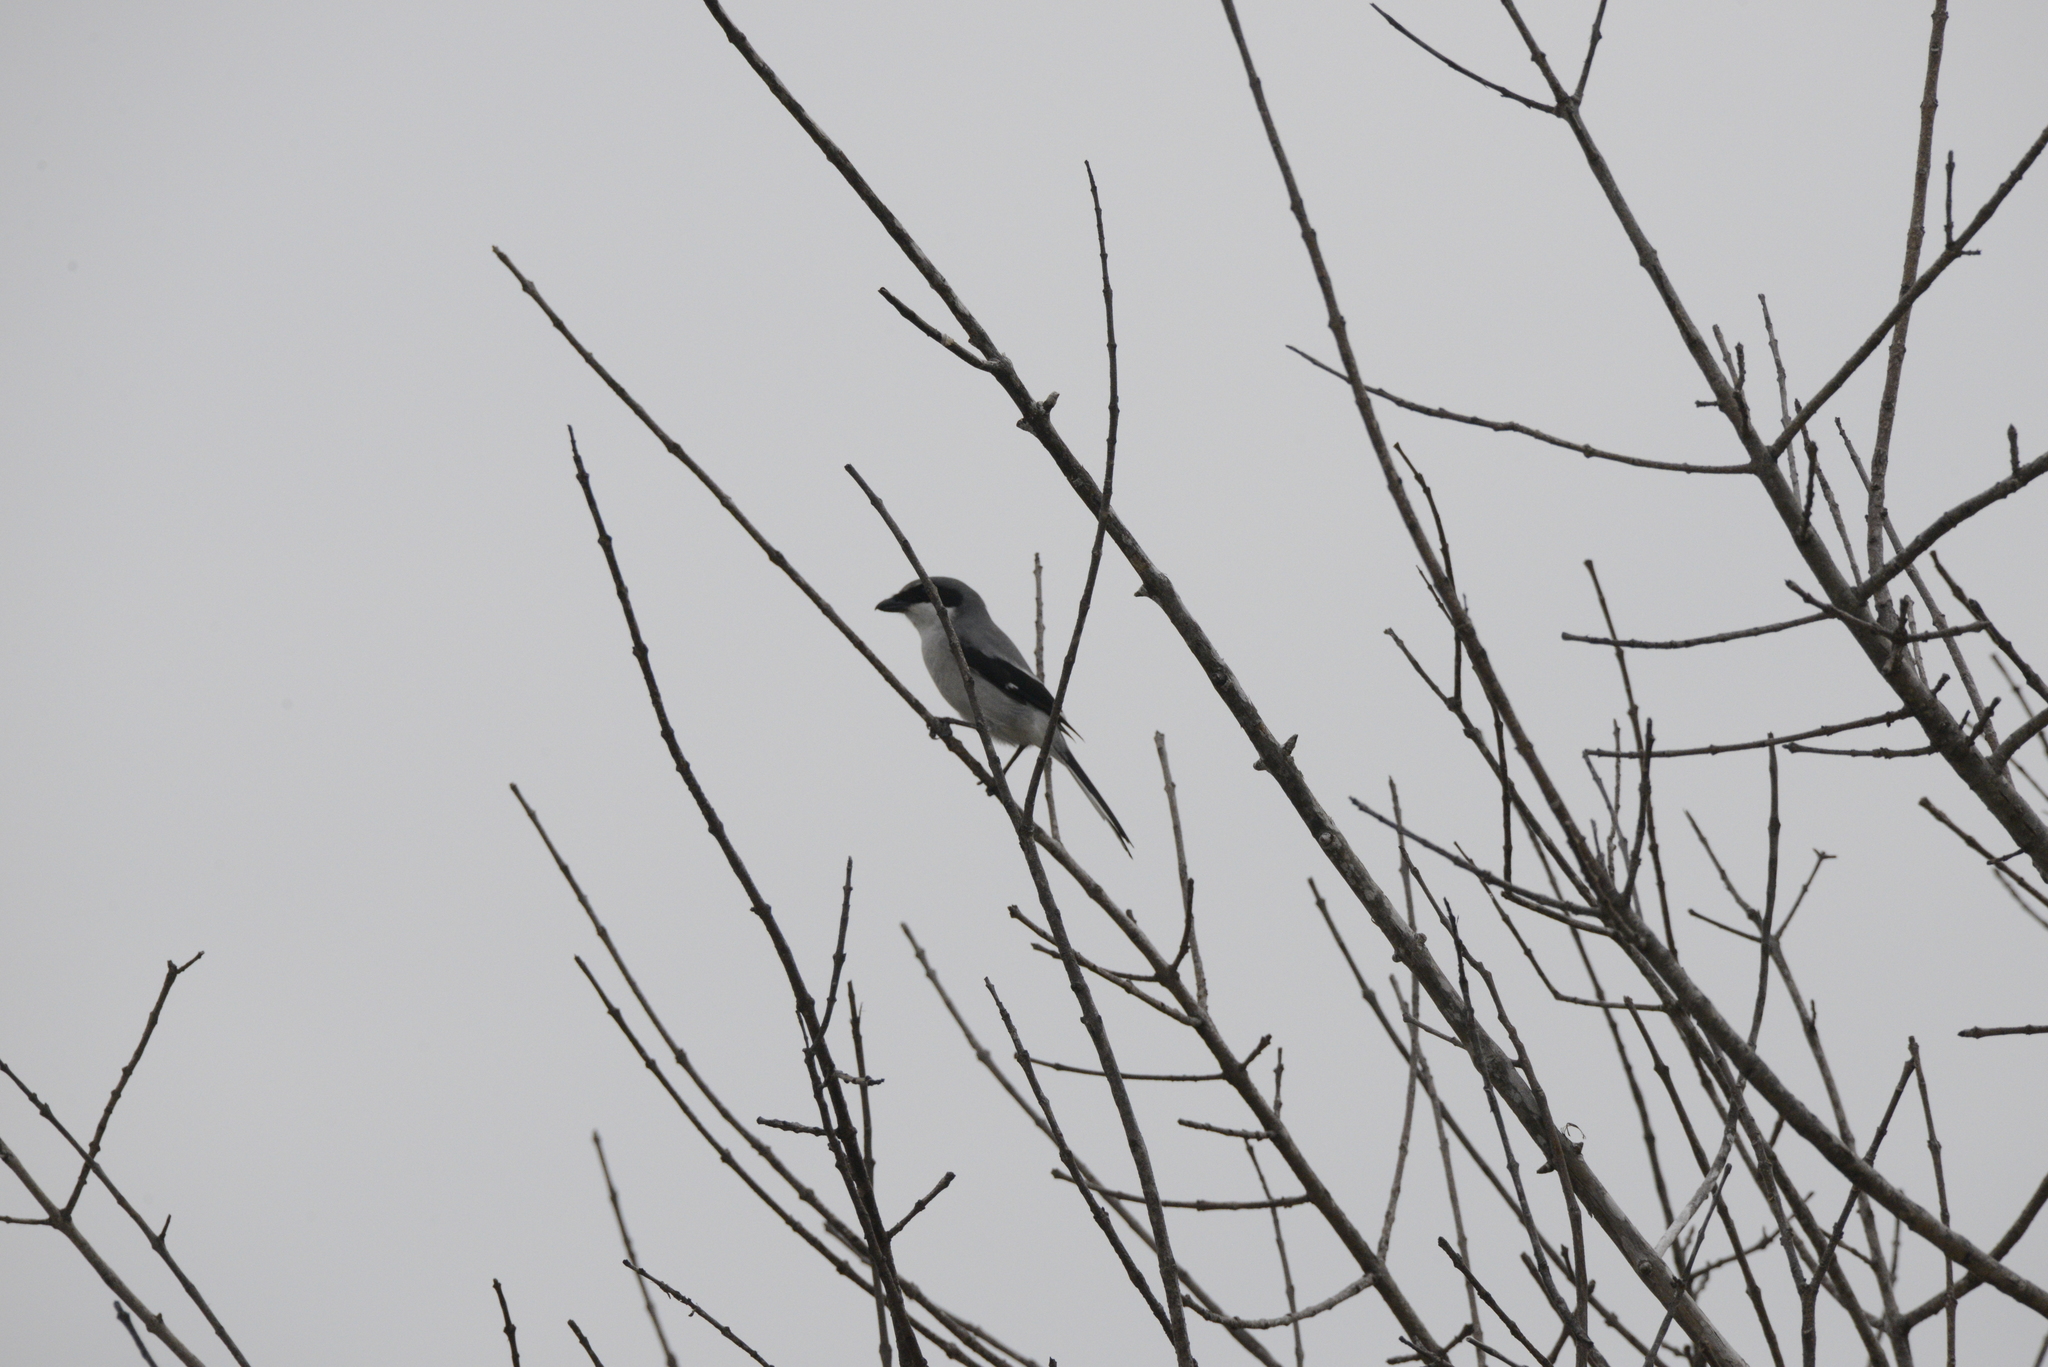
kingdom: Animalia
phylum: Chordata
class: Aves
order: Passeriformes
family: Laniidae
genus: Lanius
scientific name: Lanius ludovicianus
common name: Loggerhead shrike
